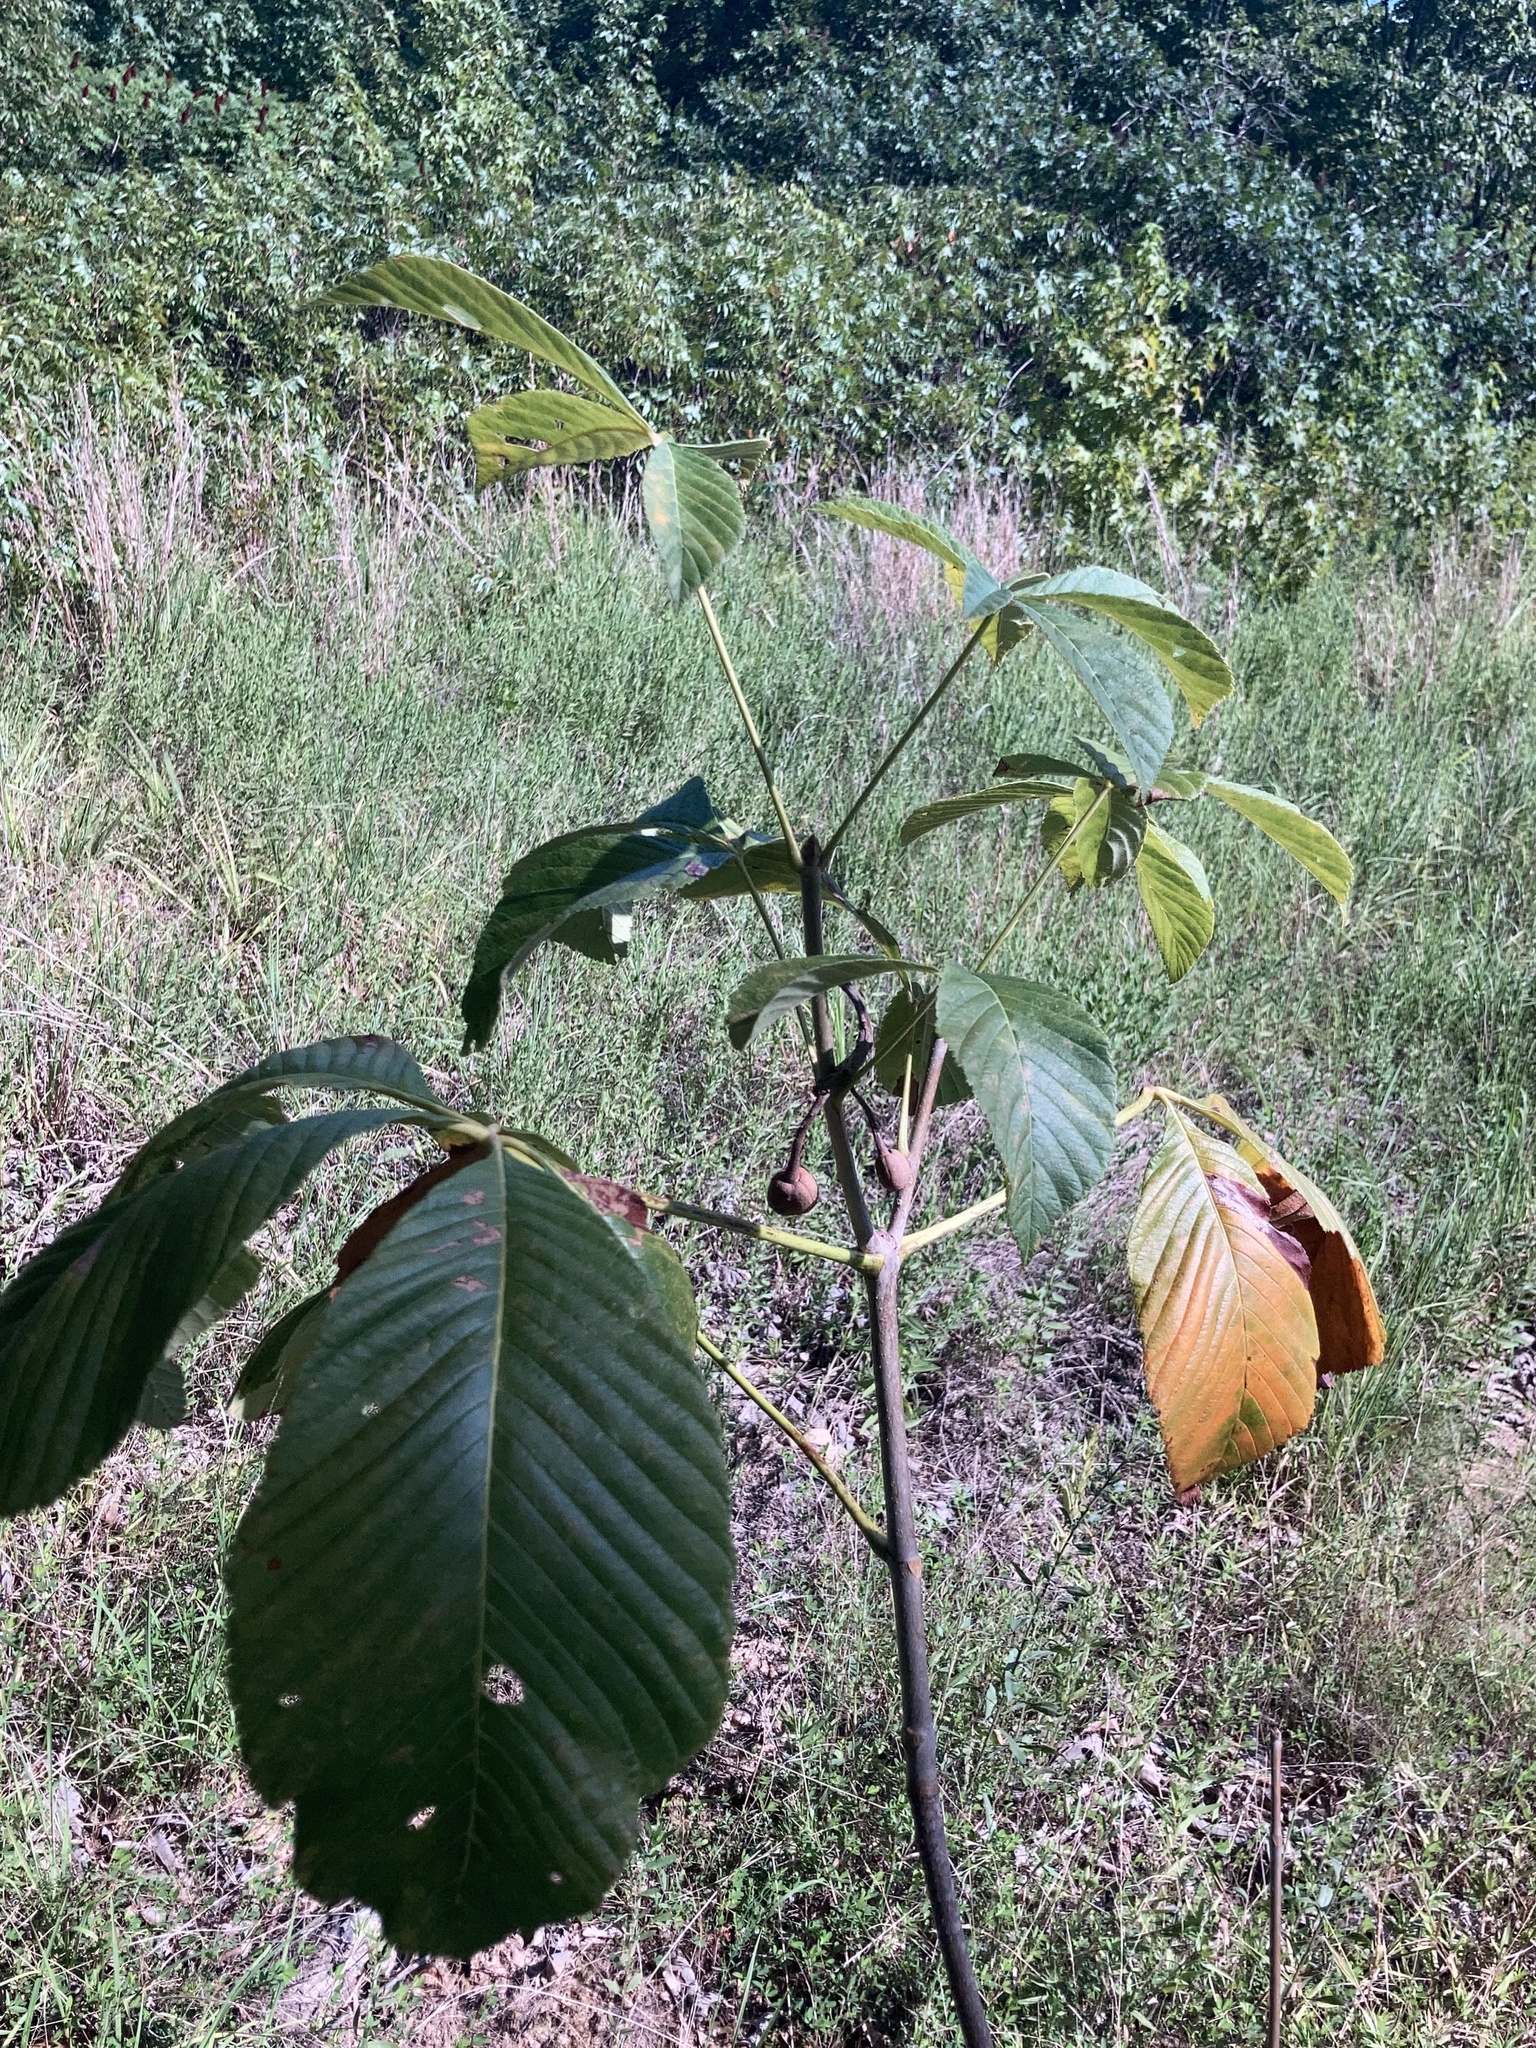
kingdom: Plantae
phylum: Tracheophyta
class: Magnoliopsida
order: Sapindales
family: Sapindaceae
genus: Aesculus
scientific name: Aesculus pavia
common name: Red buckeye
